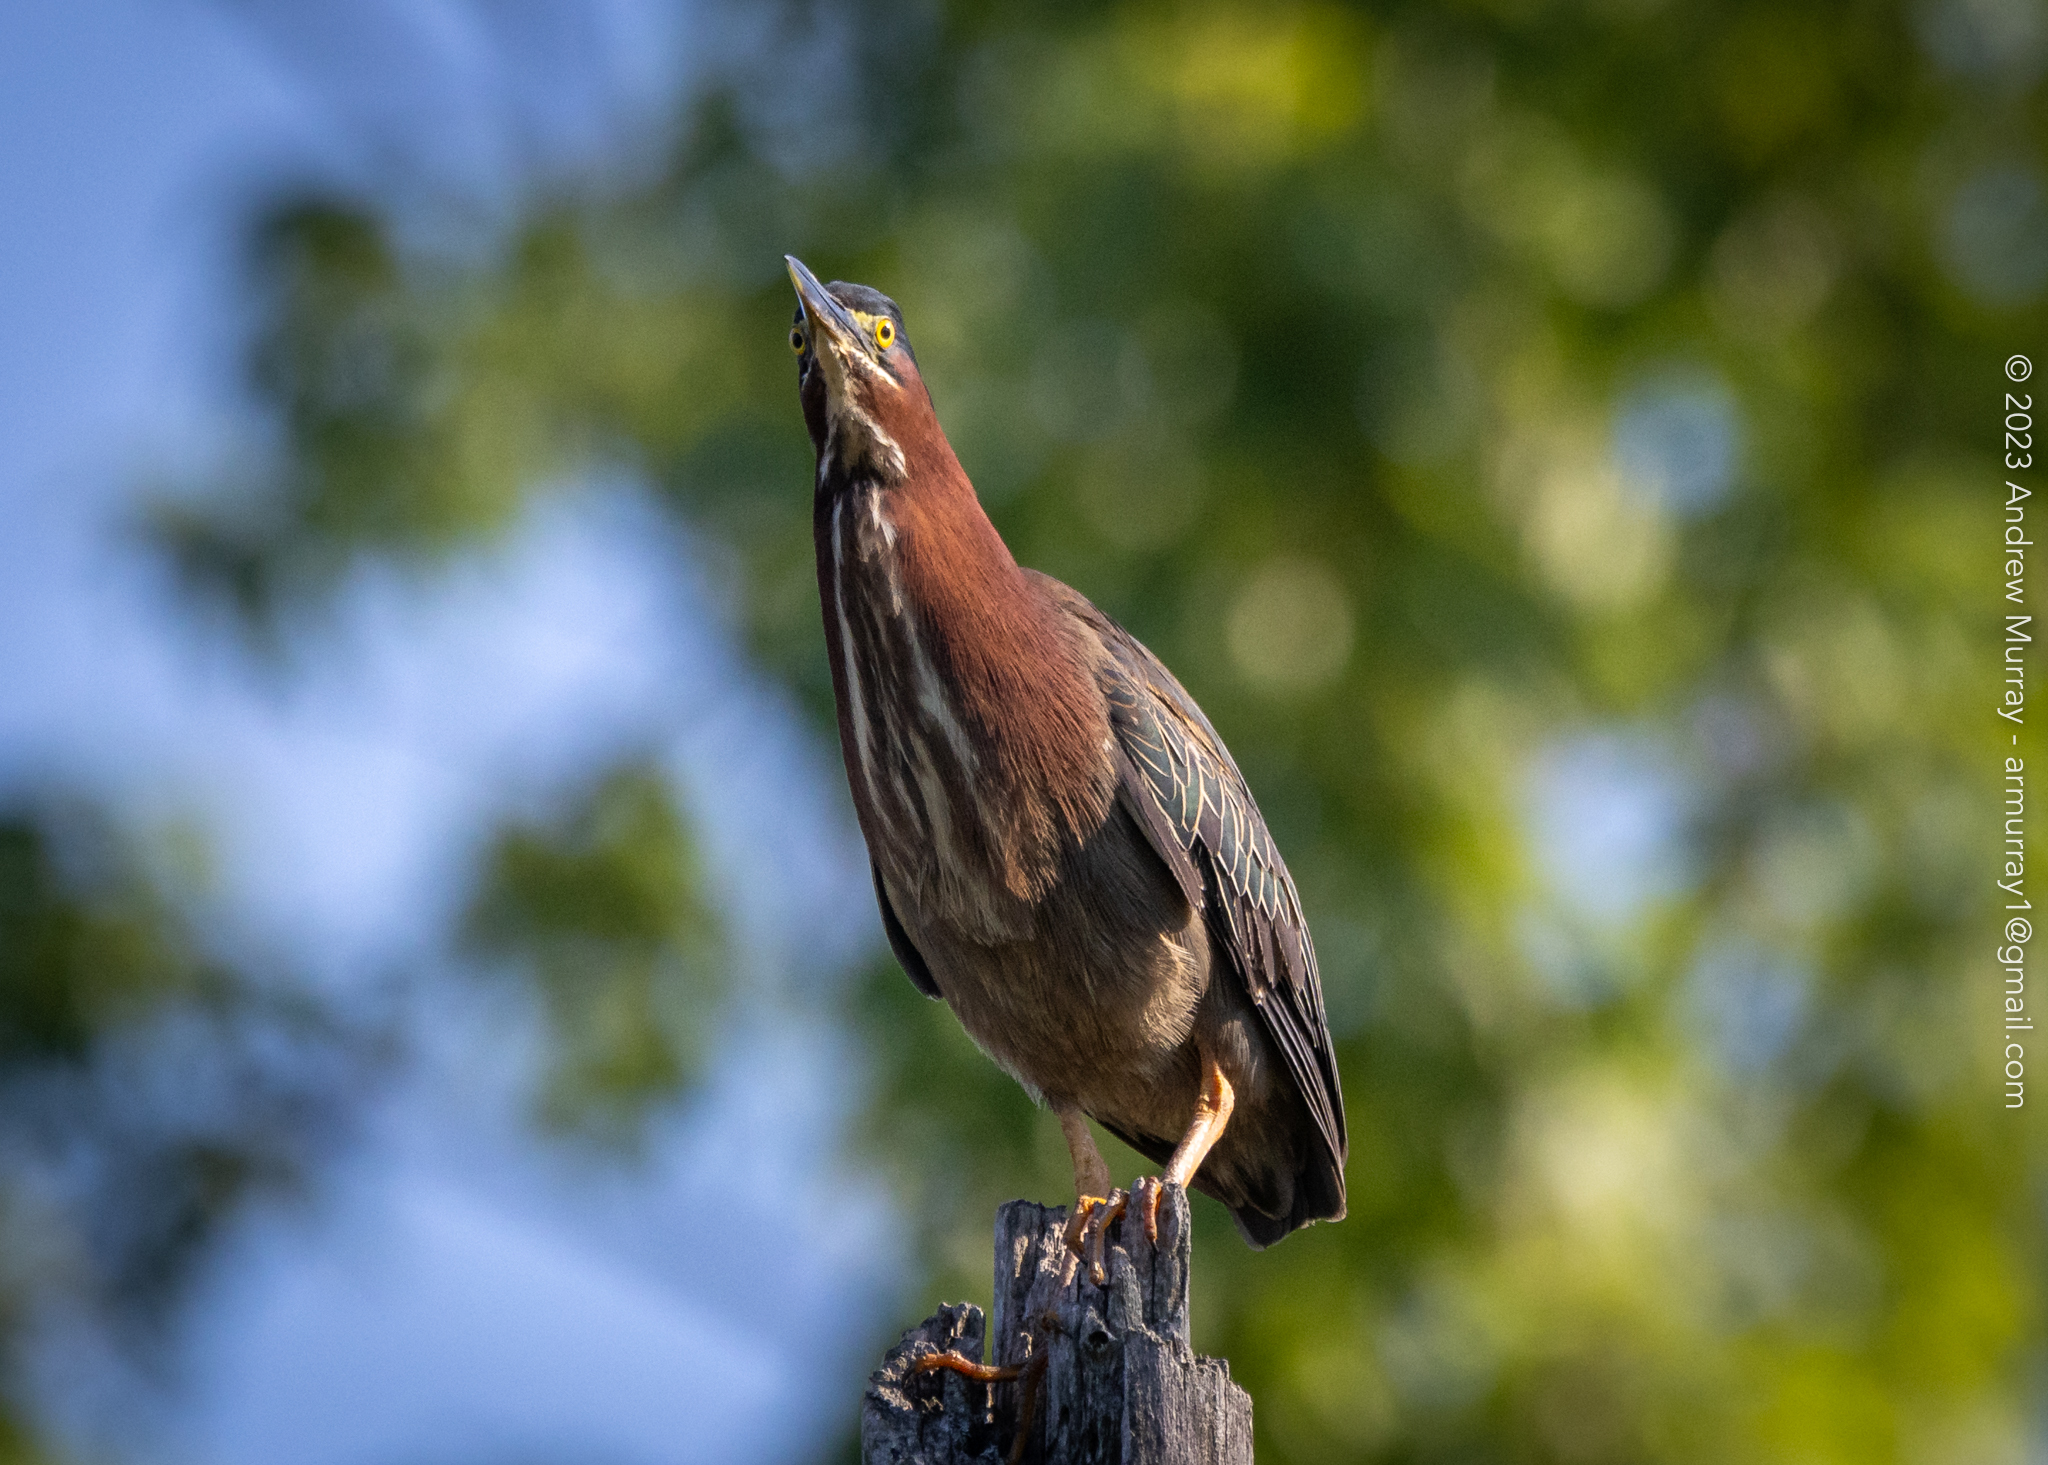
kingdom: Animalia
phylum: Chordata
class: Aves
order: Pelecaniformes
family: Ardeidae
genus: Butorides
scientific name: Butorides virescens
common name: Green heron
